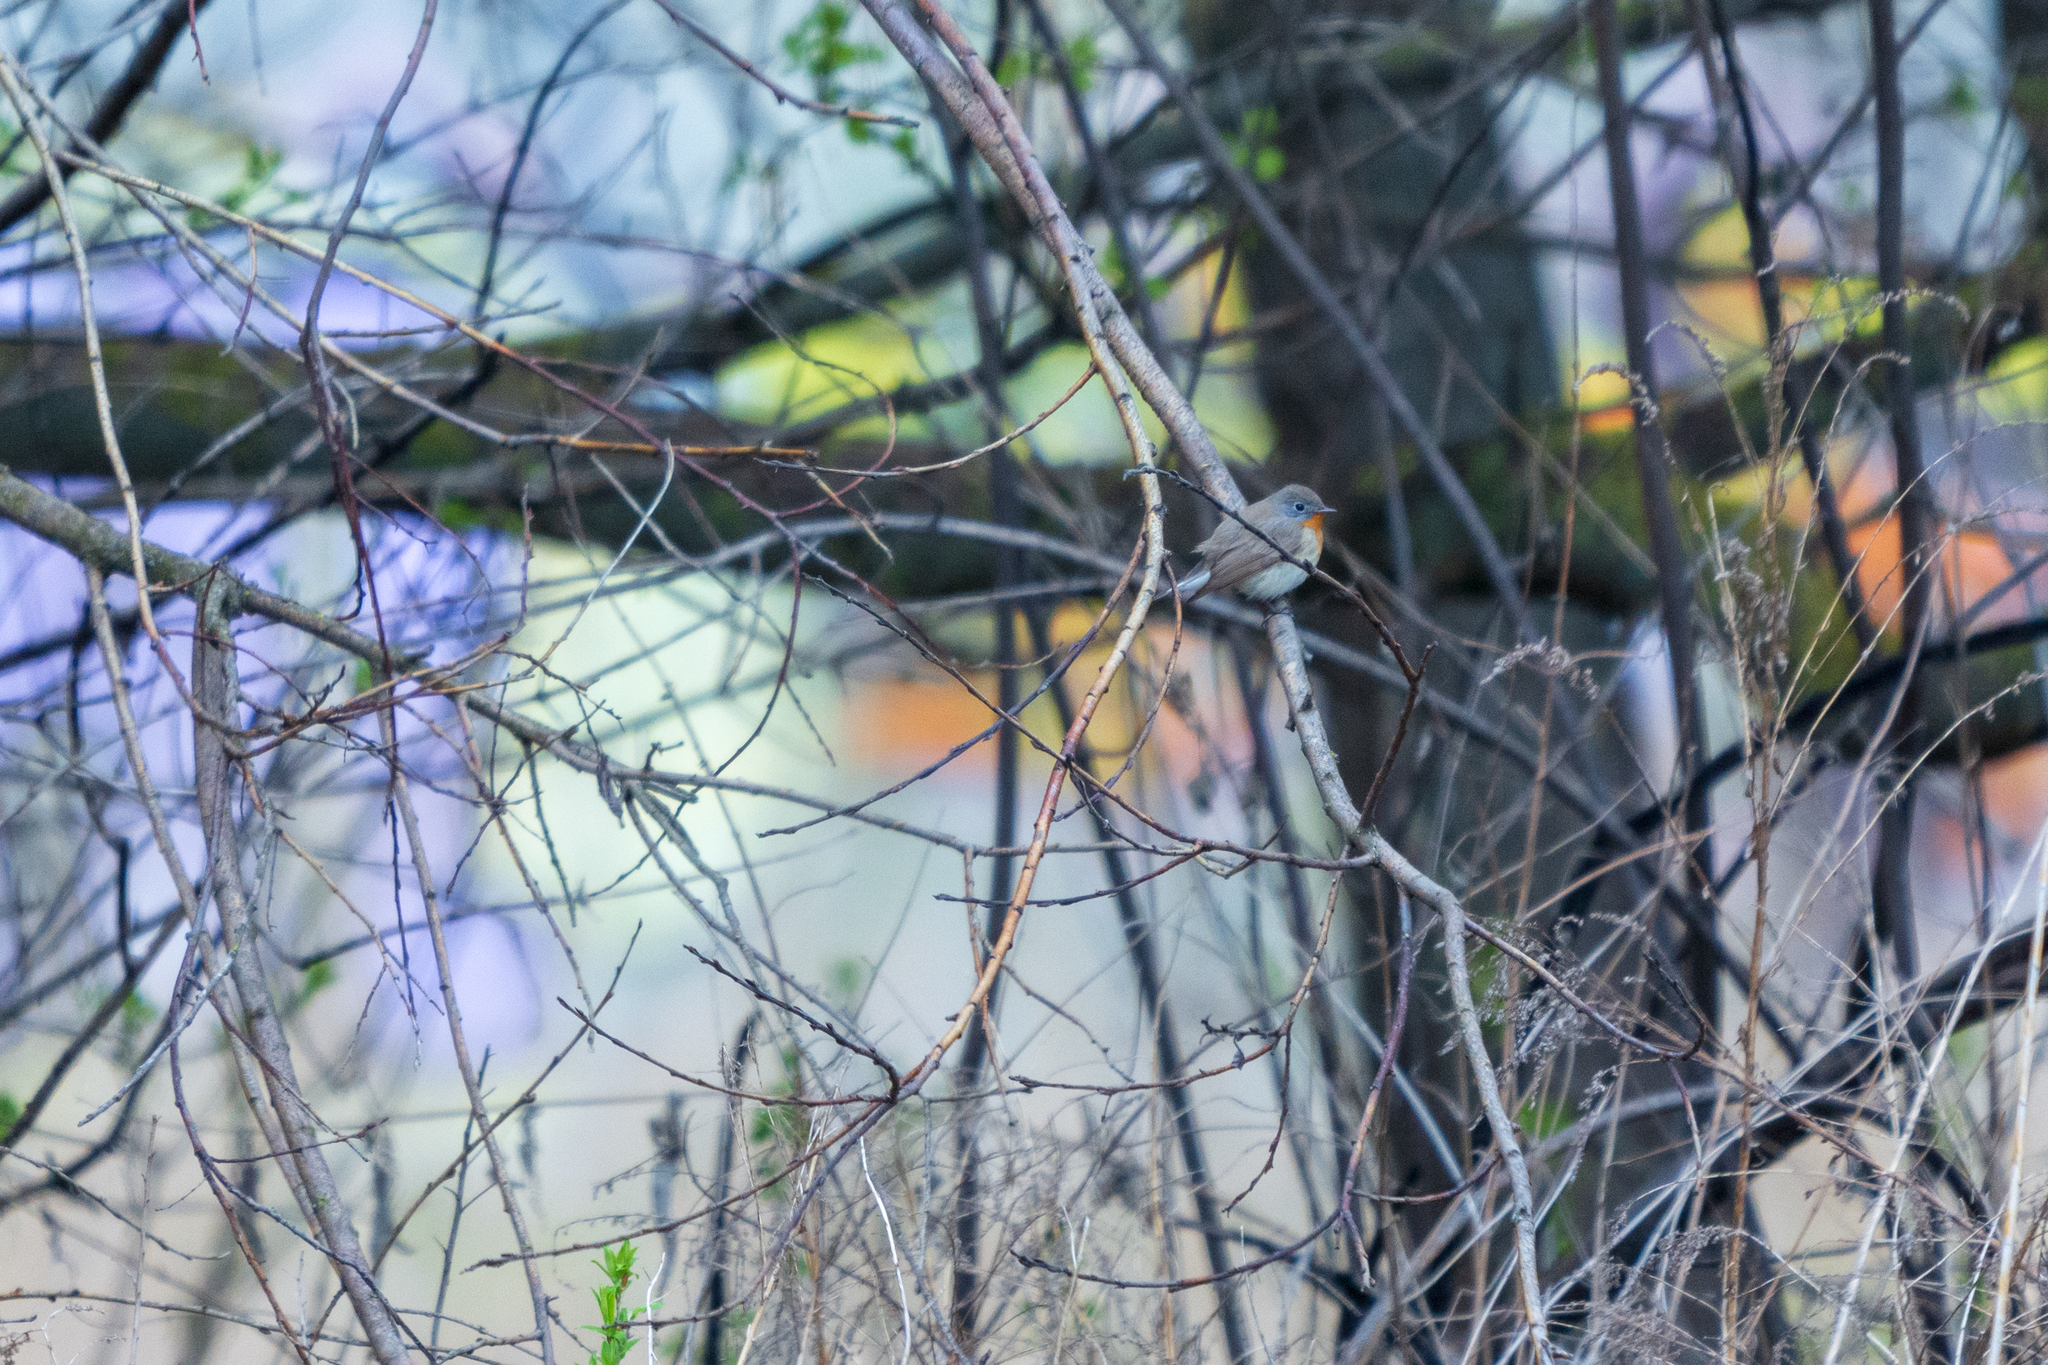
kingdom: Animalia
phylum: Chordata
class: Aves
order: Passeriformes
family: Muscicapidae
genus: Ficedula
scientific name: Ficedula parva
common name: Red-breasted flycatcher
